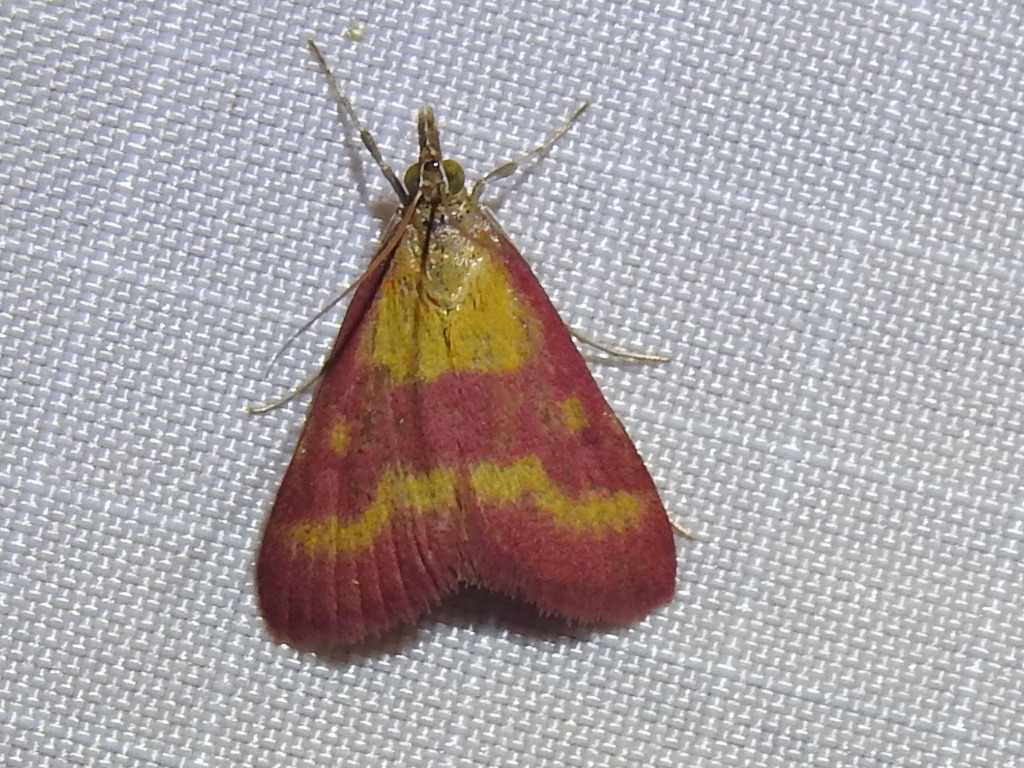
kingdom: Animalia
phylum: Arthropoda
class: Insecta
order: Lepidoptera
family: Crambidae
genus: Pyrausta
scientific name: Pyrausta laticlavia
